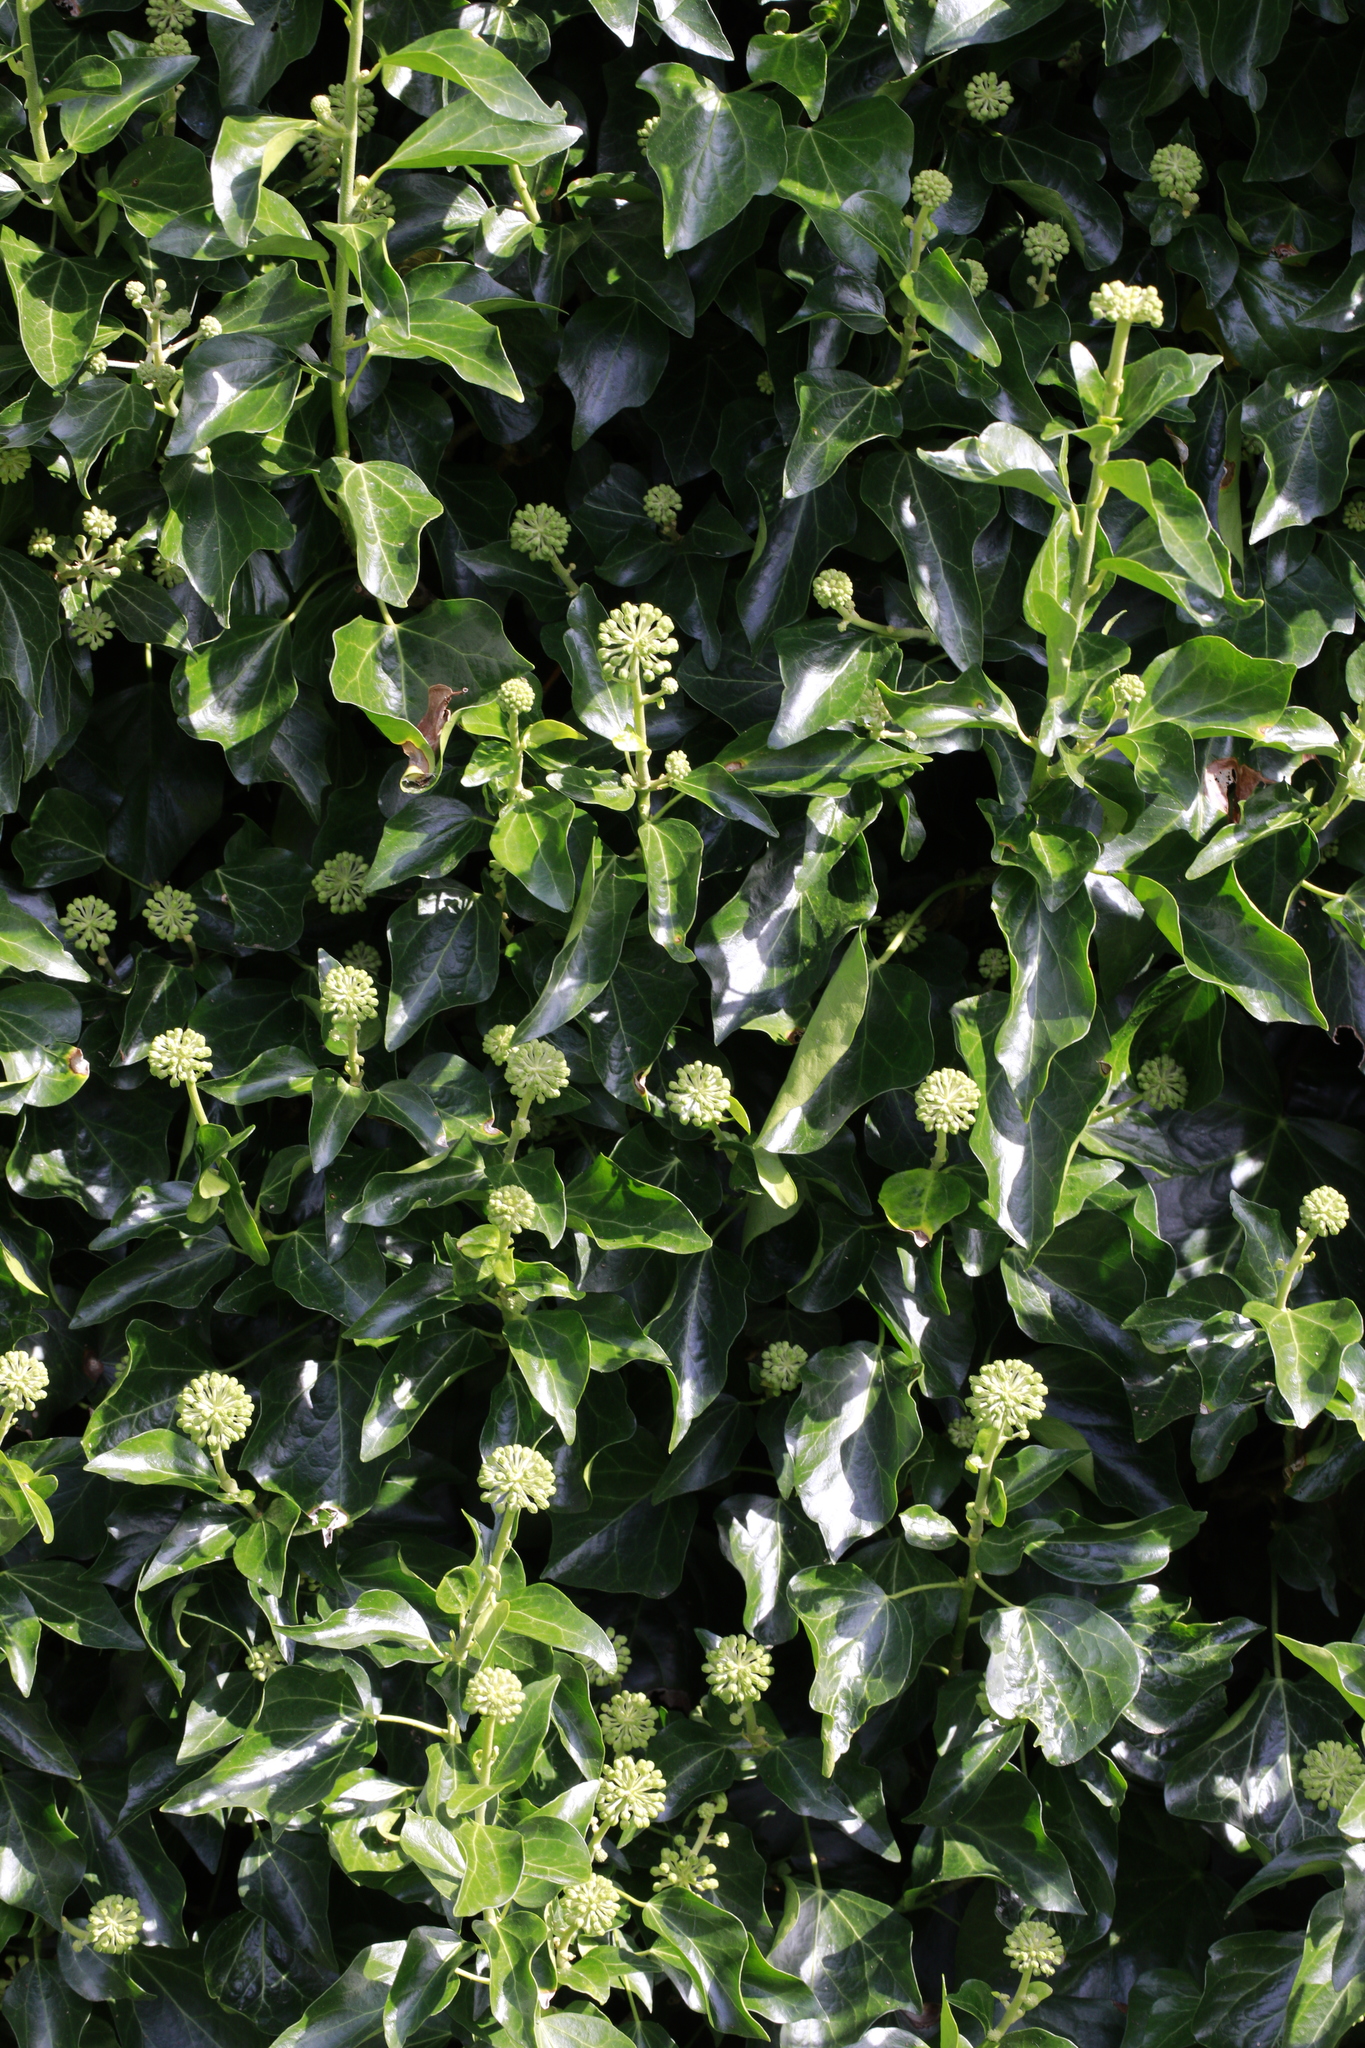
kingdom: Plantae
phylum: Tracheophyta
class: Magnoliopsida
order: Apiales
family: Araliaceae
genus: Hedera
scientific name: Hedera helix
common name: Ivy
